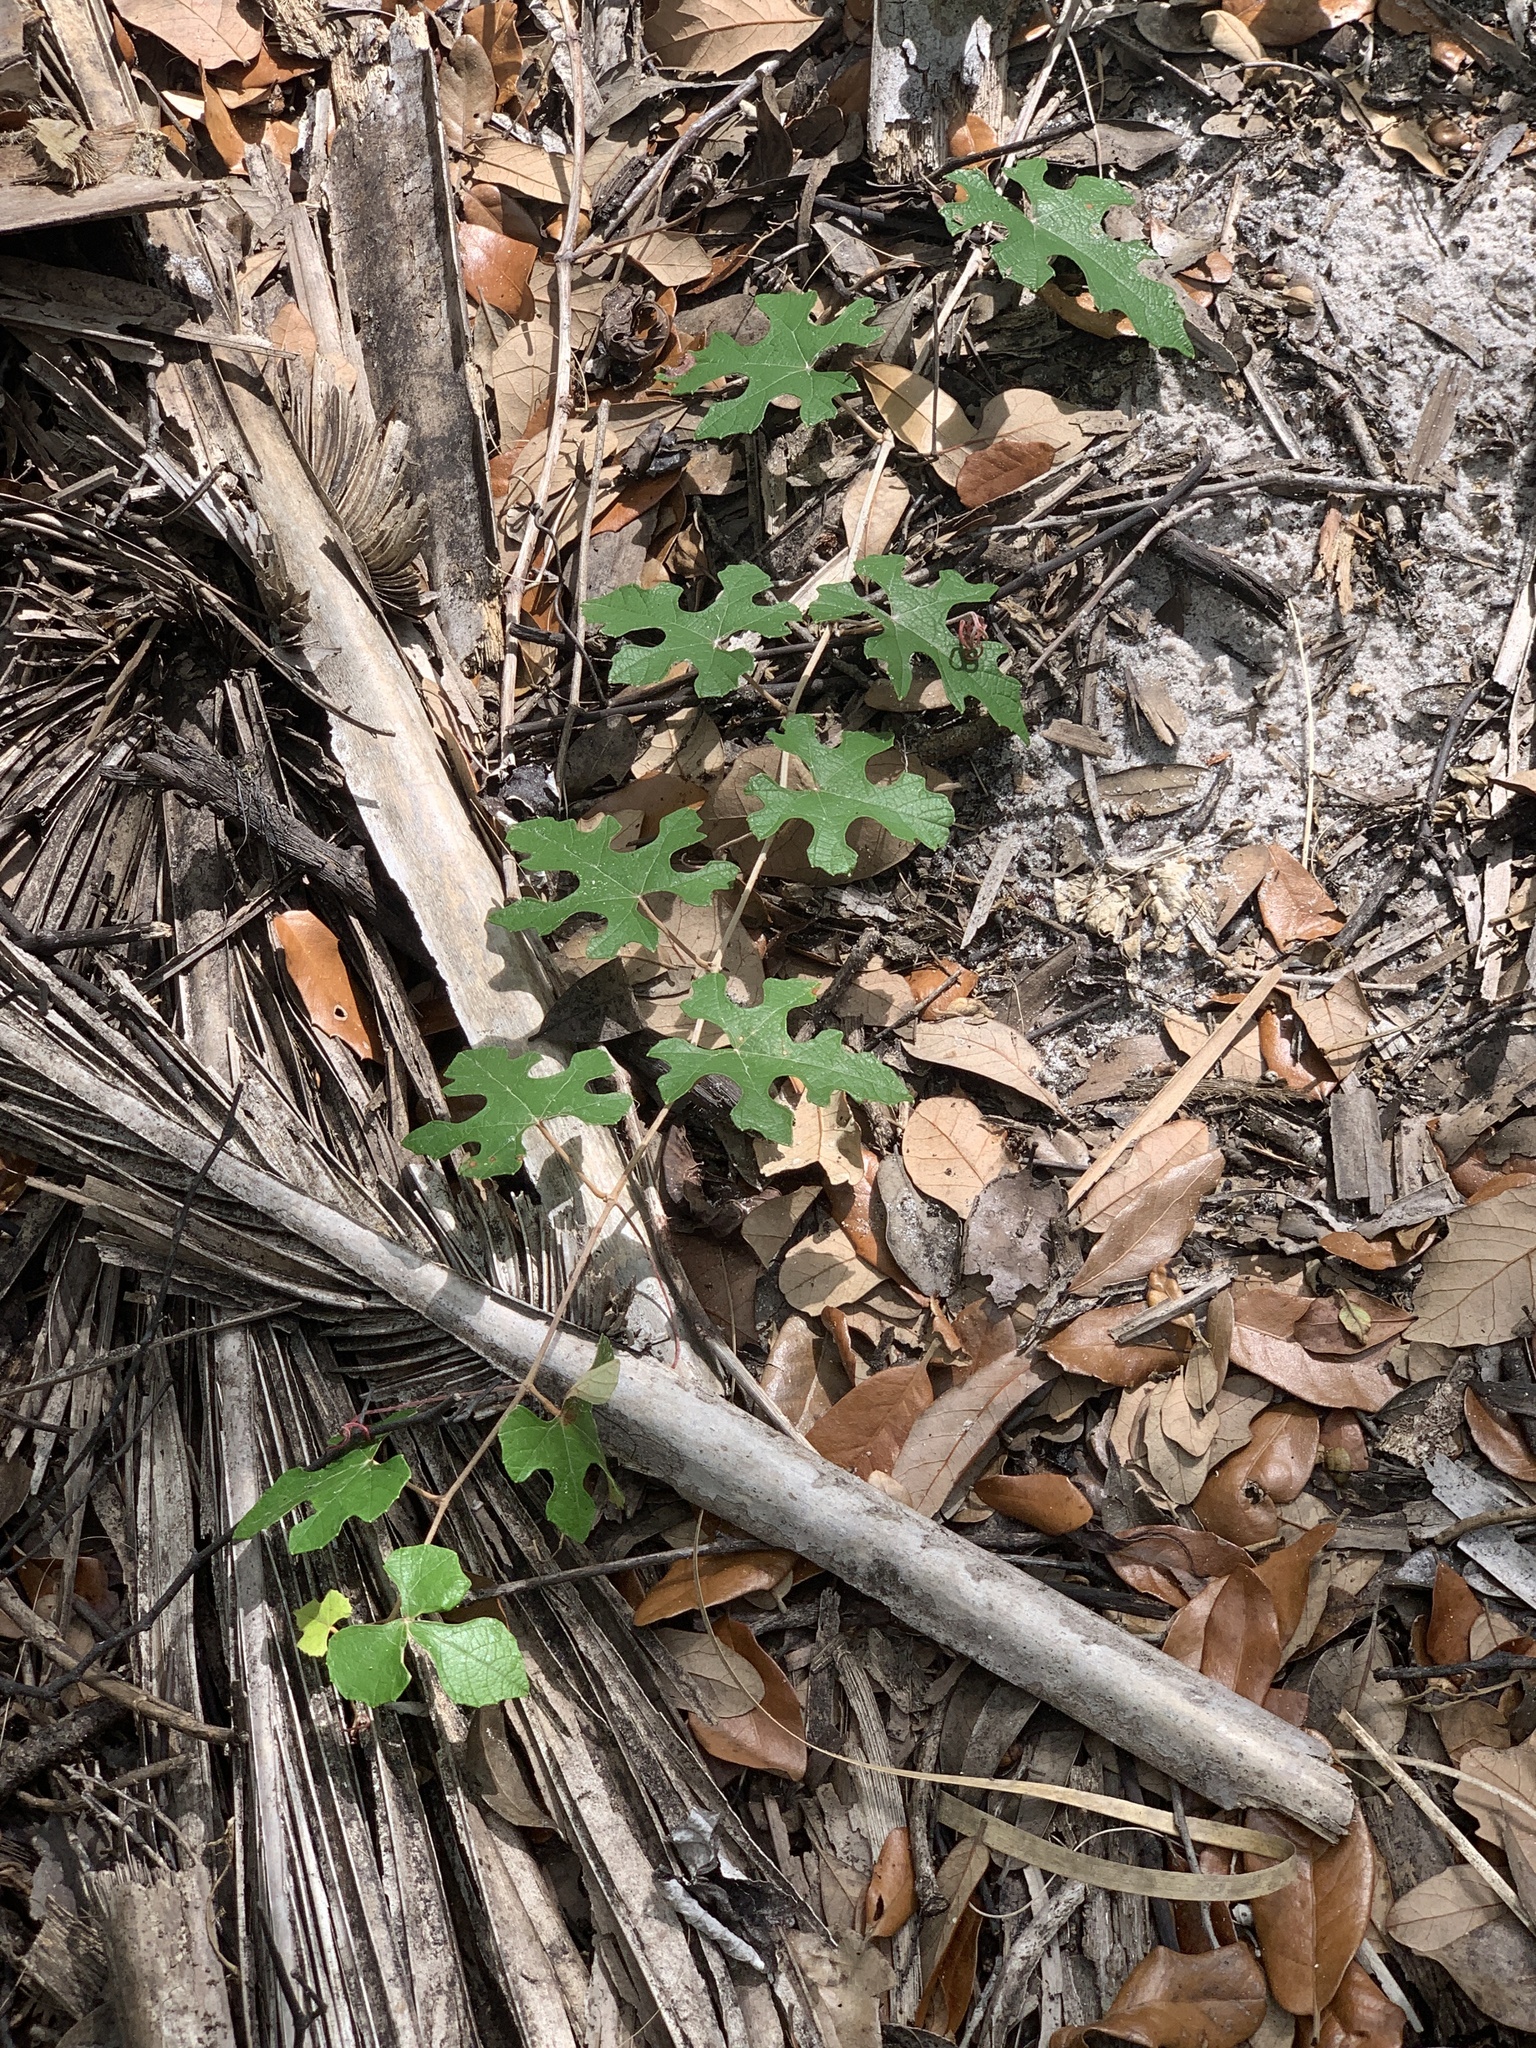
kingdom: Plantae
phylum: Tracheophyta
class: Magnoliopsida
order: Vitales
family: Vitaceae
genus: Vitis
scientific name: Vitis shuttleworthii
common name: Caloosa grape
